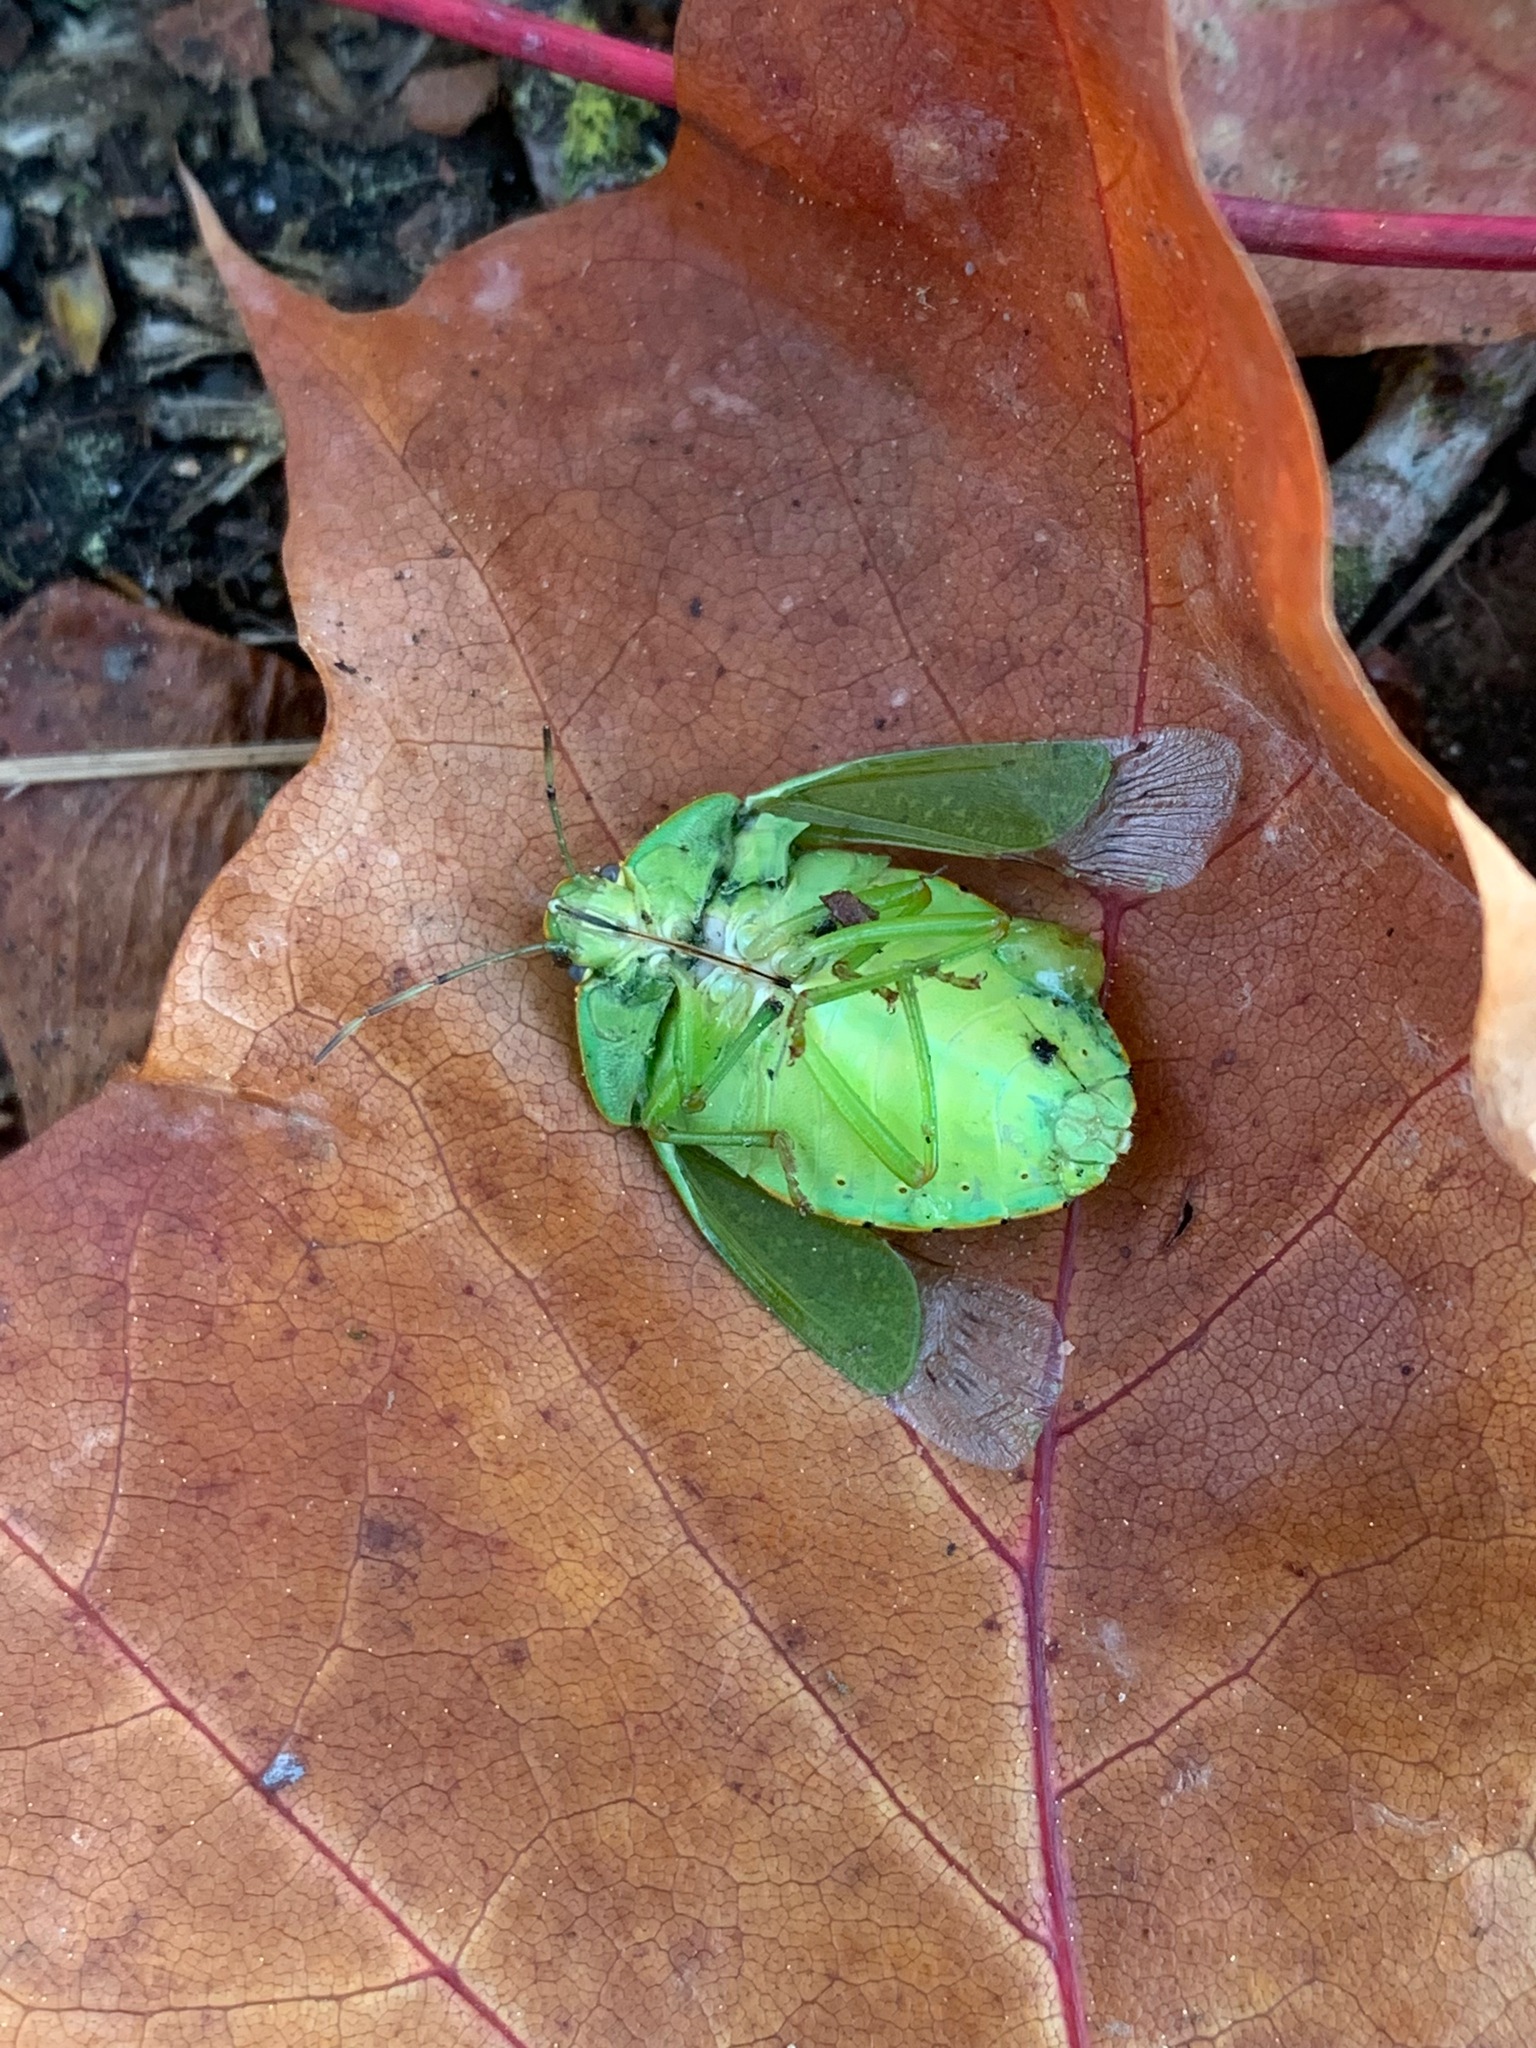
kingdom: Animalia
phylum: Arthropoda
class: Insecta
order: Hemiptera
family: Pentatomidae
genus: Chinavia
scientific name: Chinavia hilaris
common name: Green stink bug
